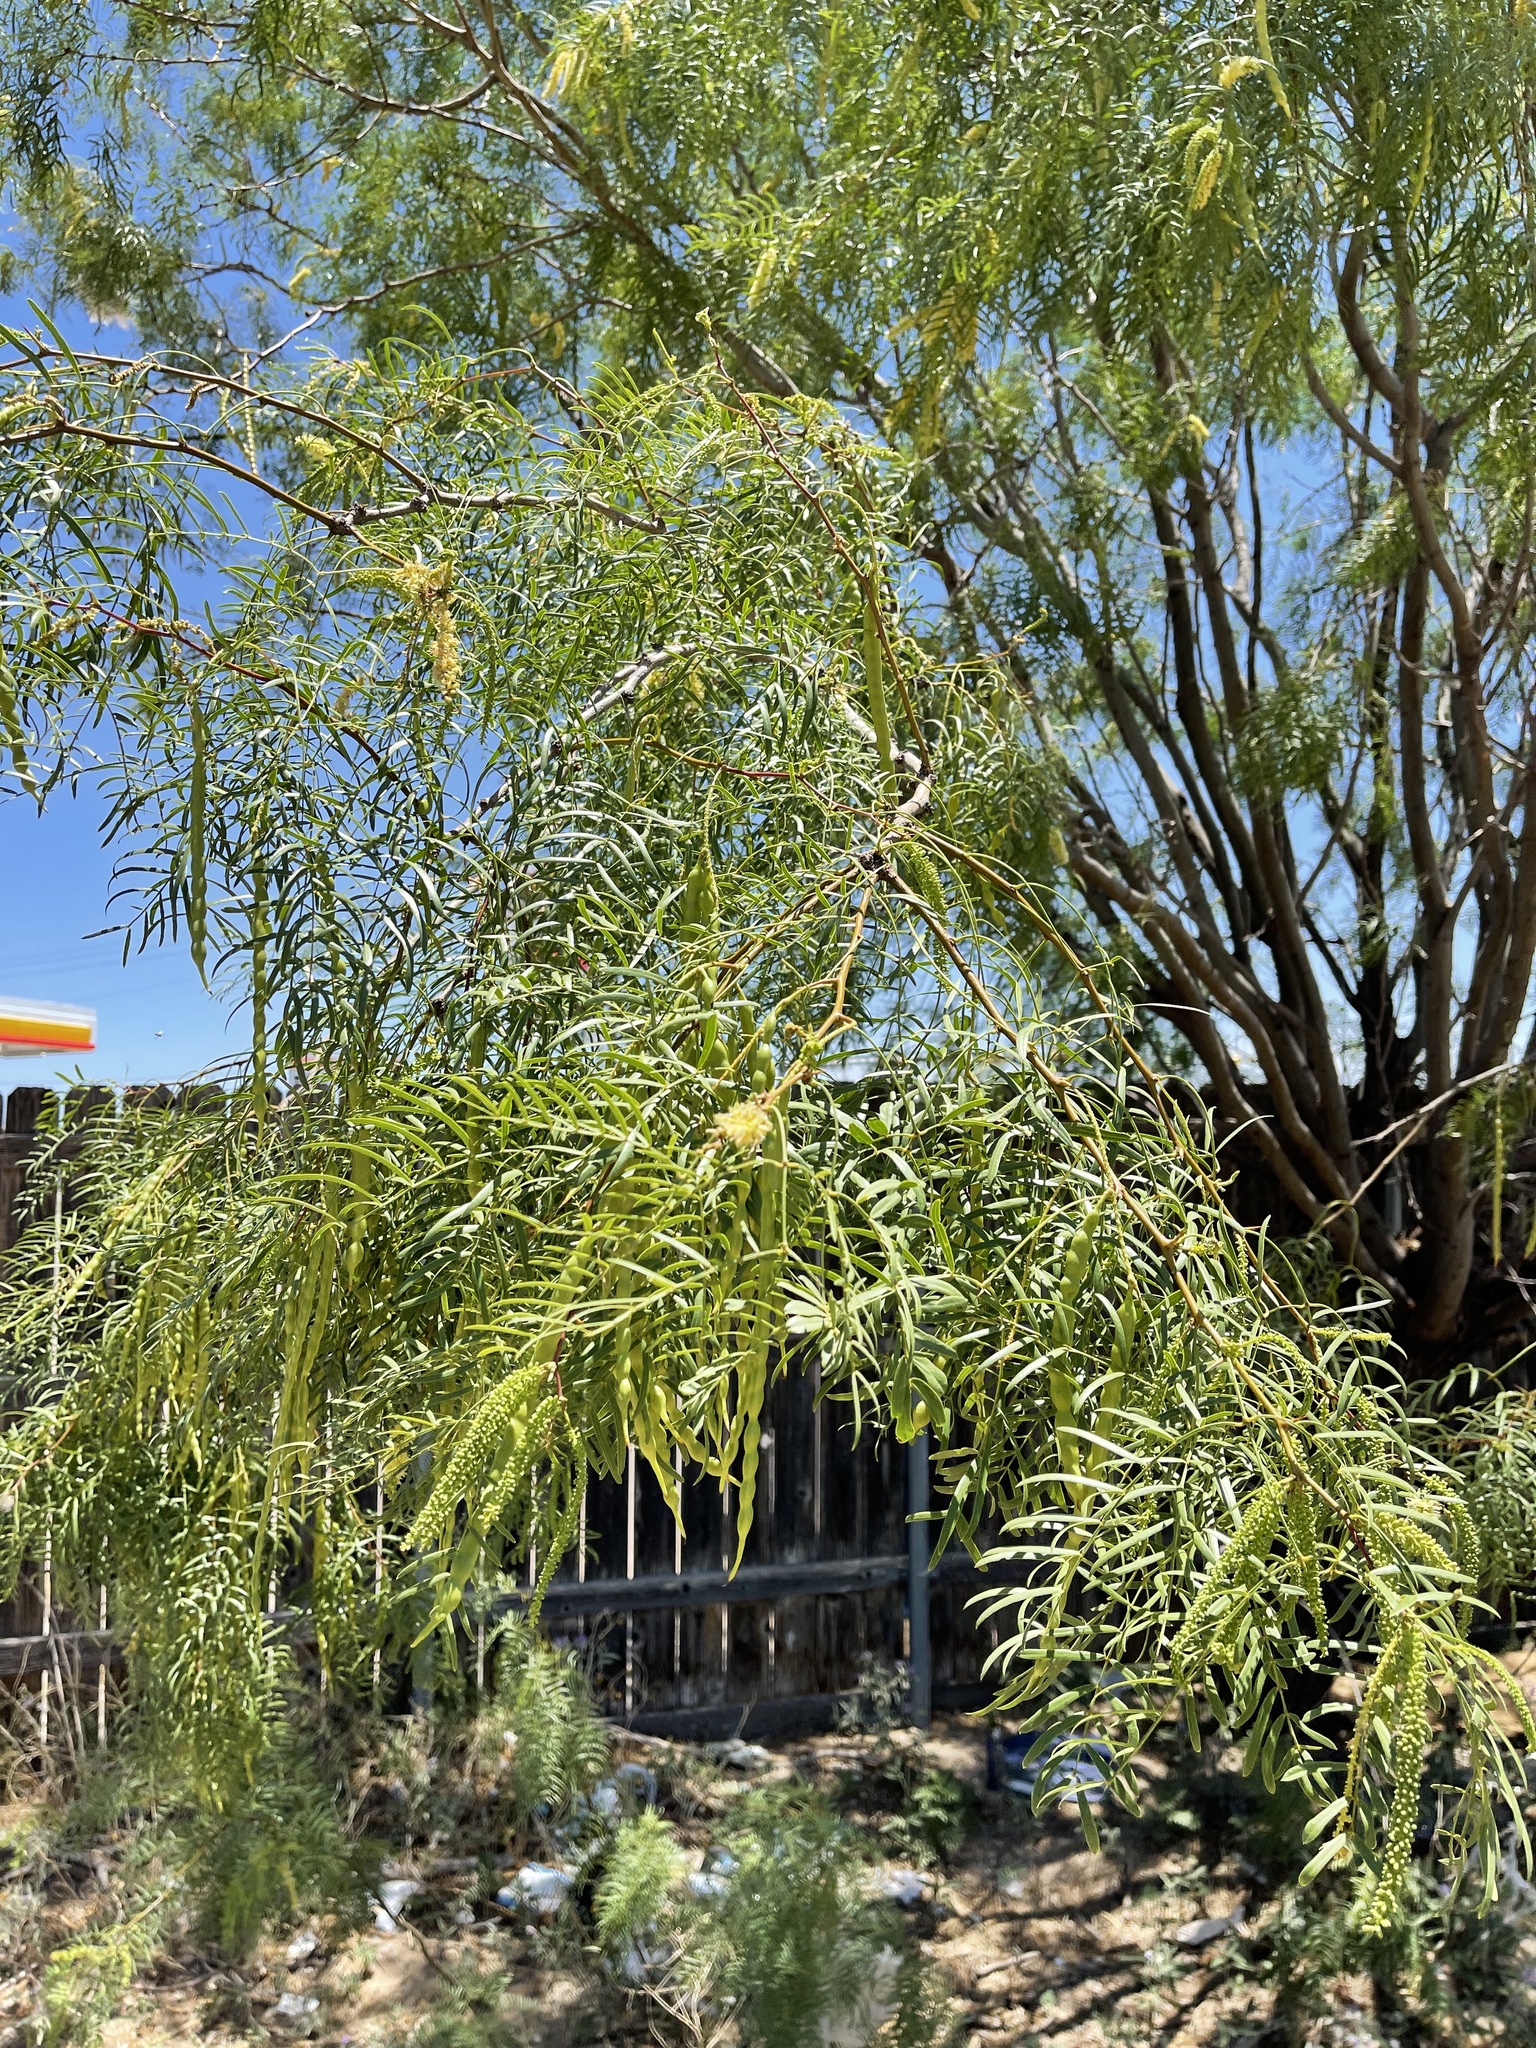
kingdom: Plantae
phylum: Tracheophyta
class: Magnoliopsida
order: Fabales
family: Fabaceae
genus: Prosopis
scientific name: Prosopis glandulosa
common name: Honey mesquite
